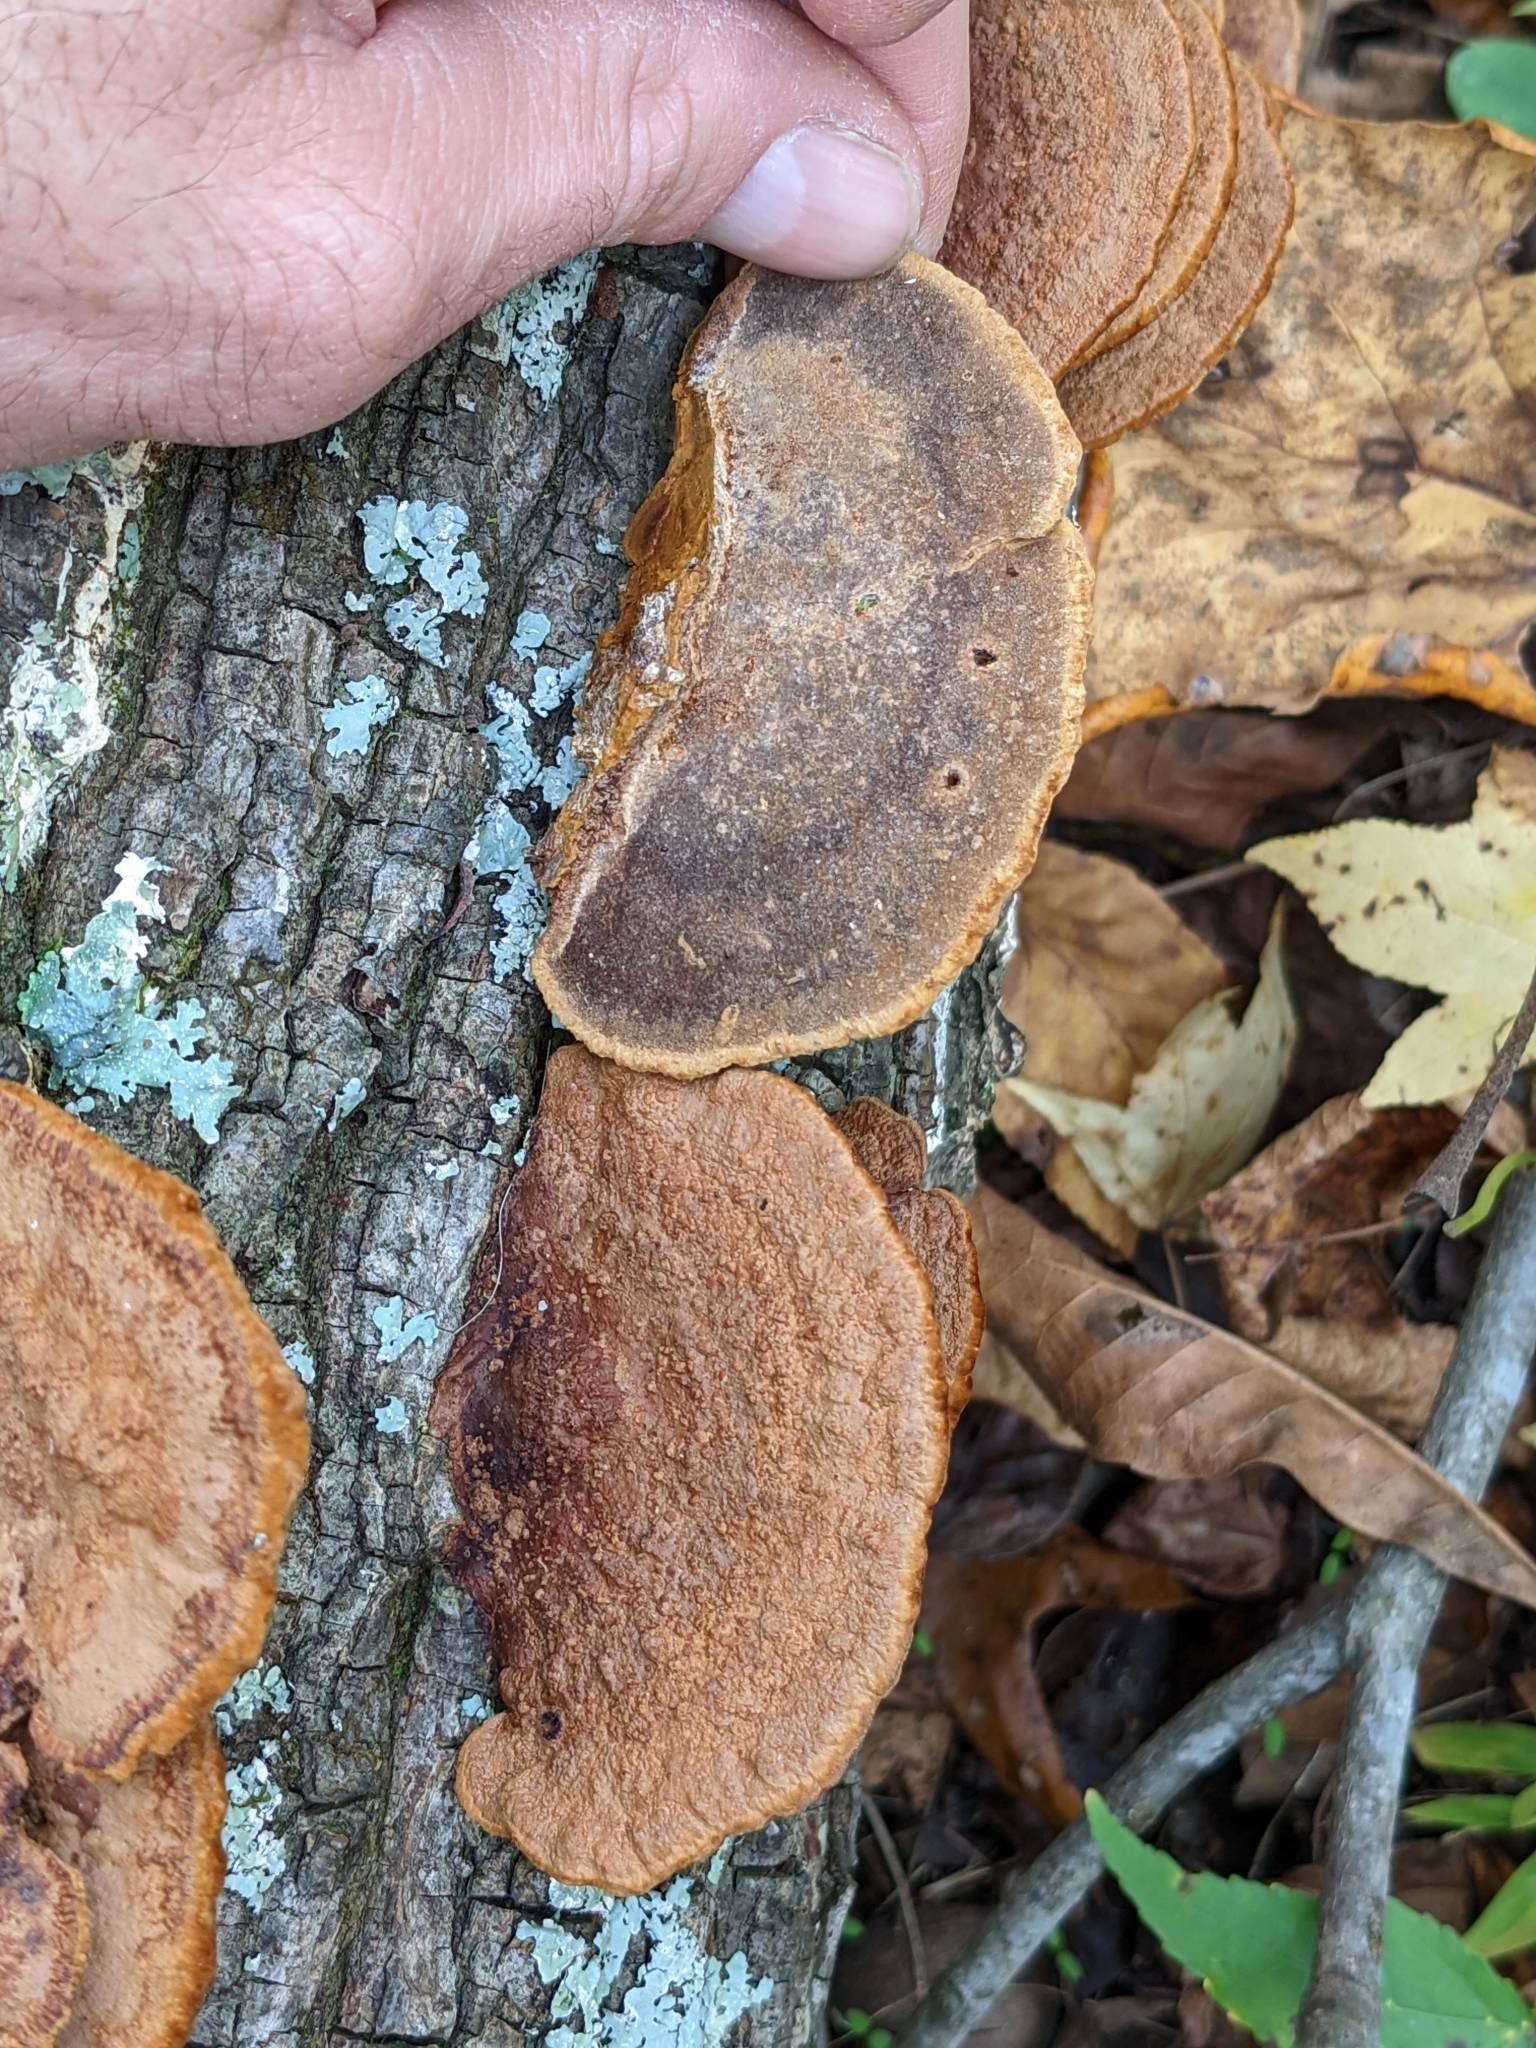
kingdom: Fungi
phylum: Basidiomycota
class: Agaricomycetes
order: Hymenochaetales
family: Hymenochaetaceae
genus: Phellinus
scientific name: Phellinus gilvus
